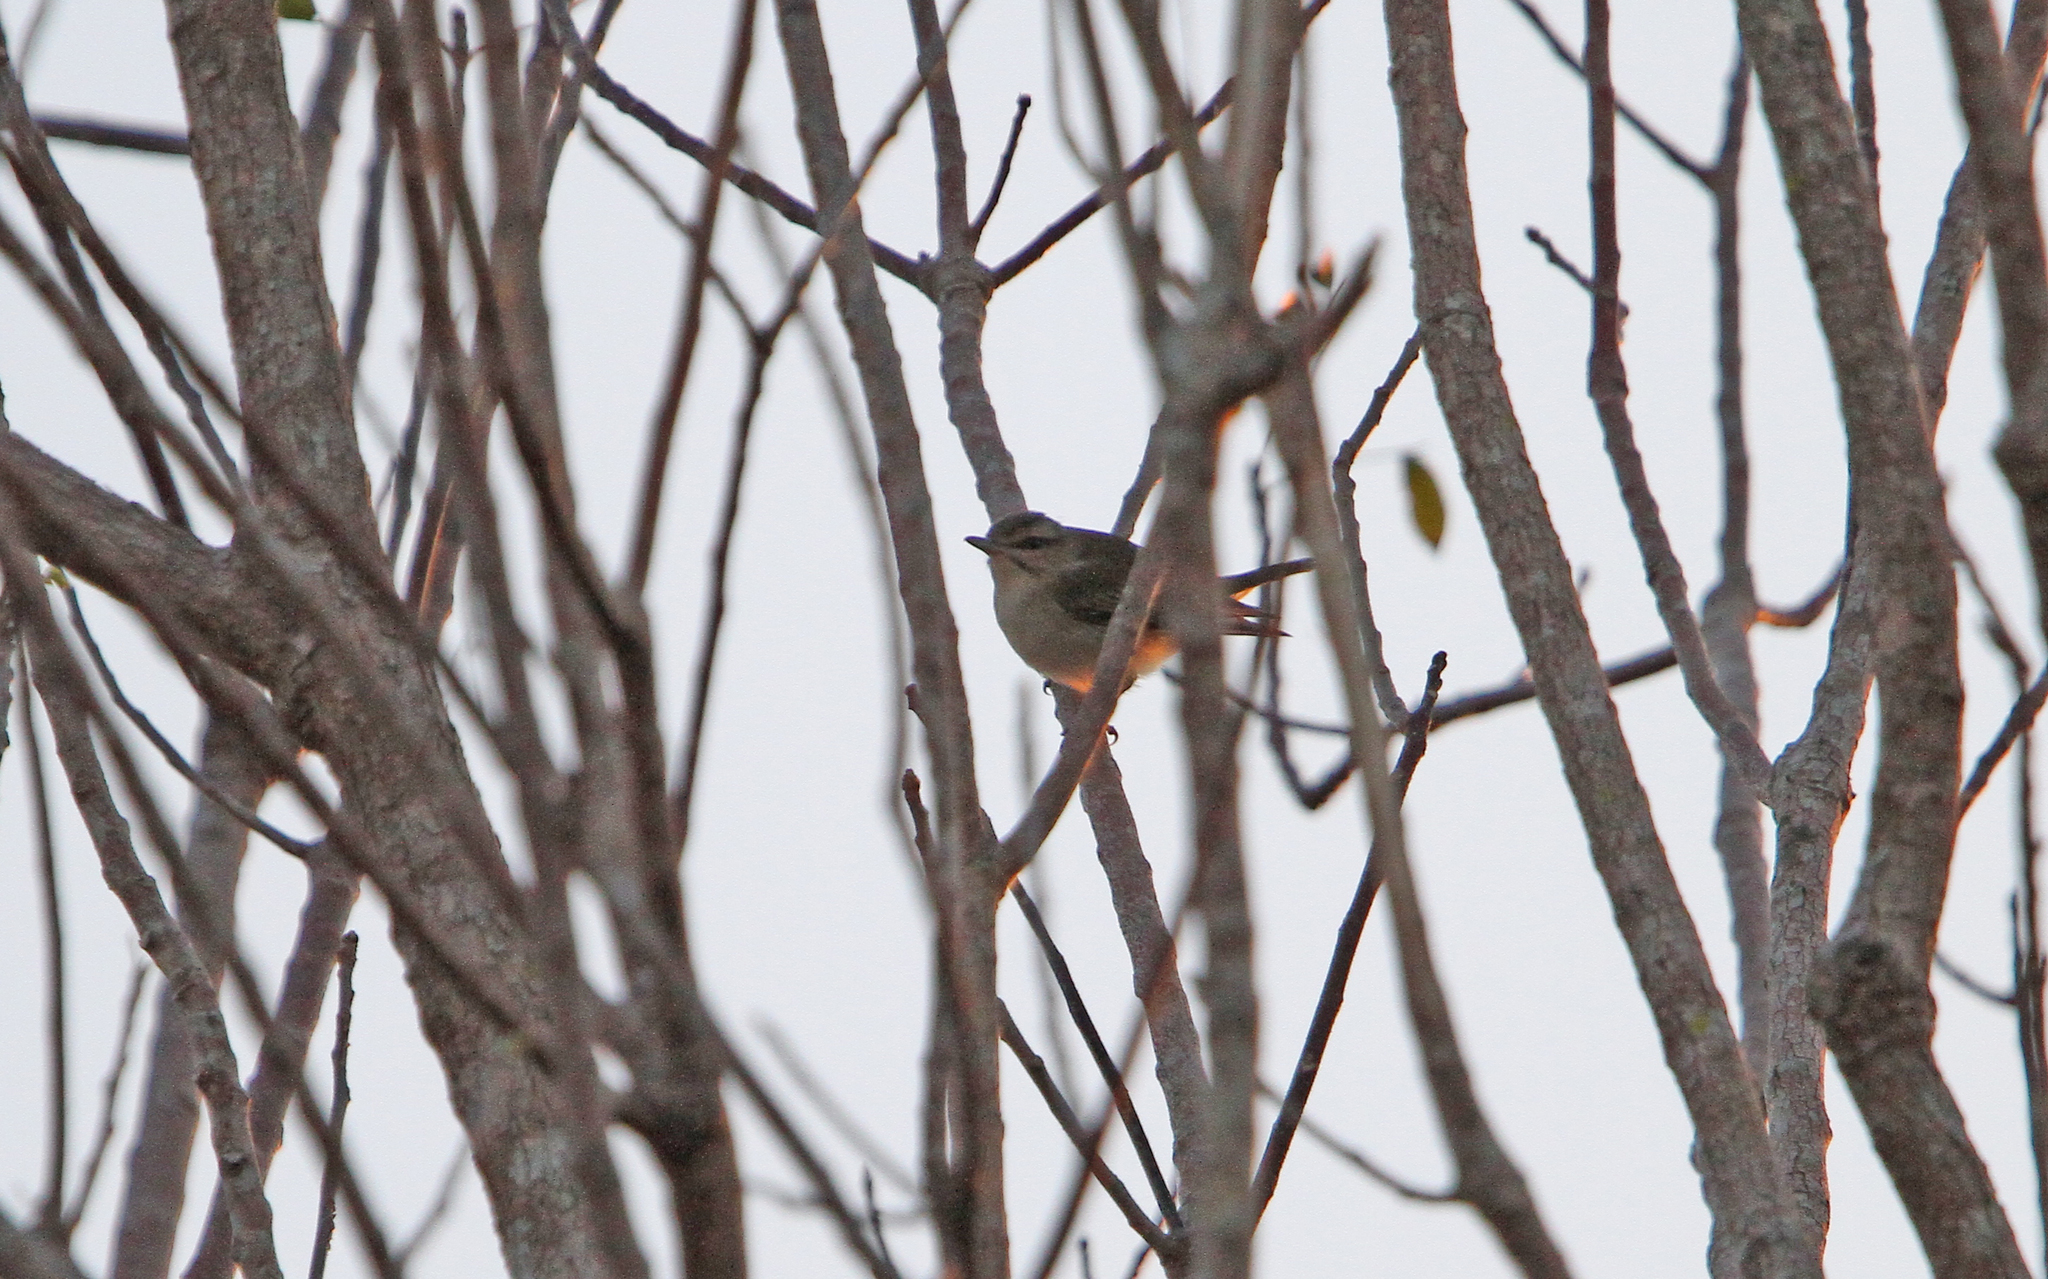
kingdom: Animalia
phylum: Chordata
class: Aves
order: Passeriformes
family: Vireonidae
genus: Vireo
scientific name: Vireo altiloquus
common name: Black-whiskered vireo
